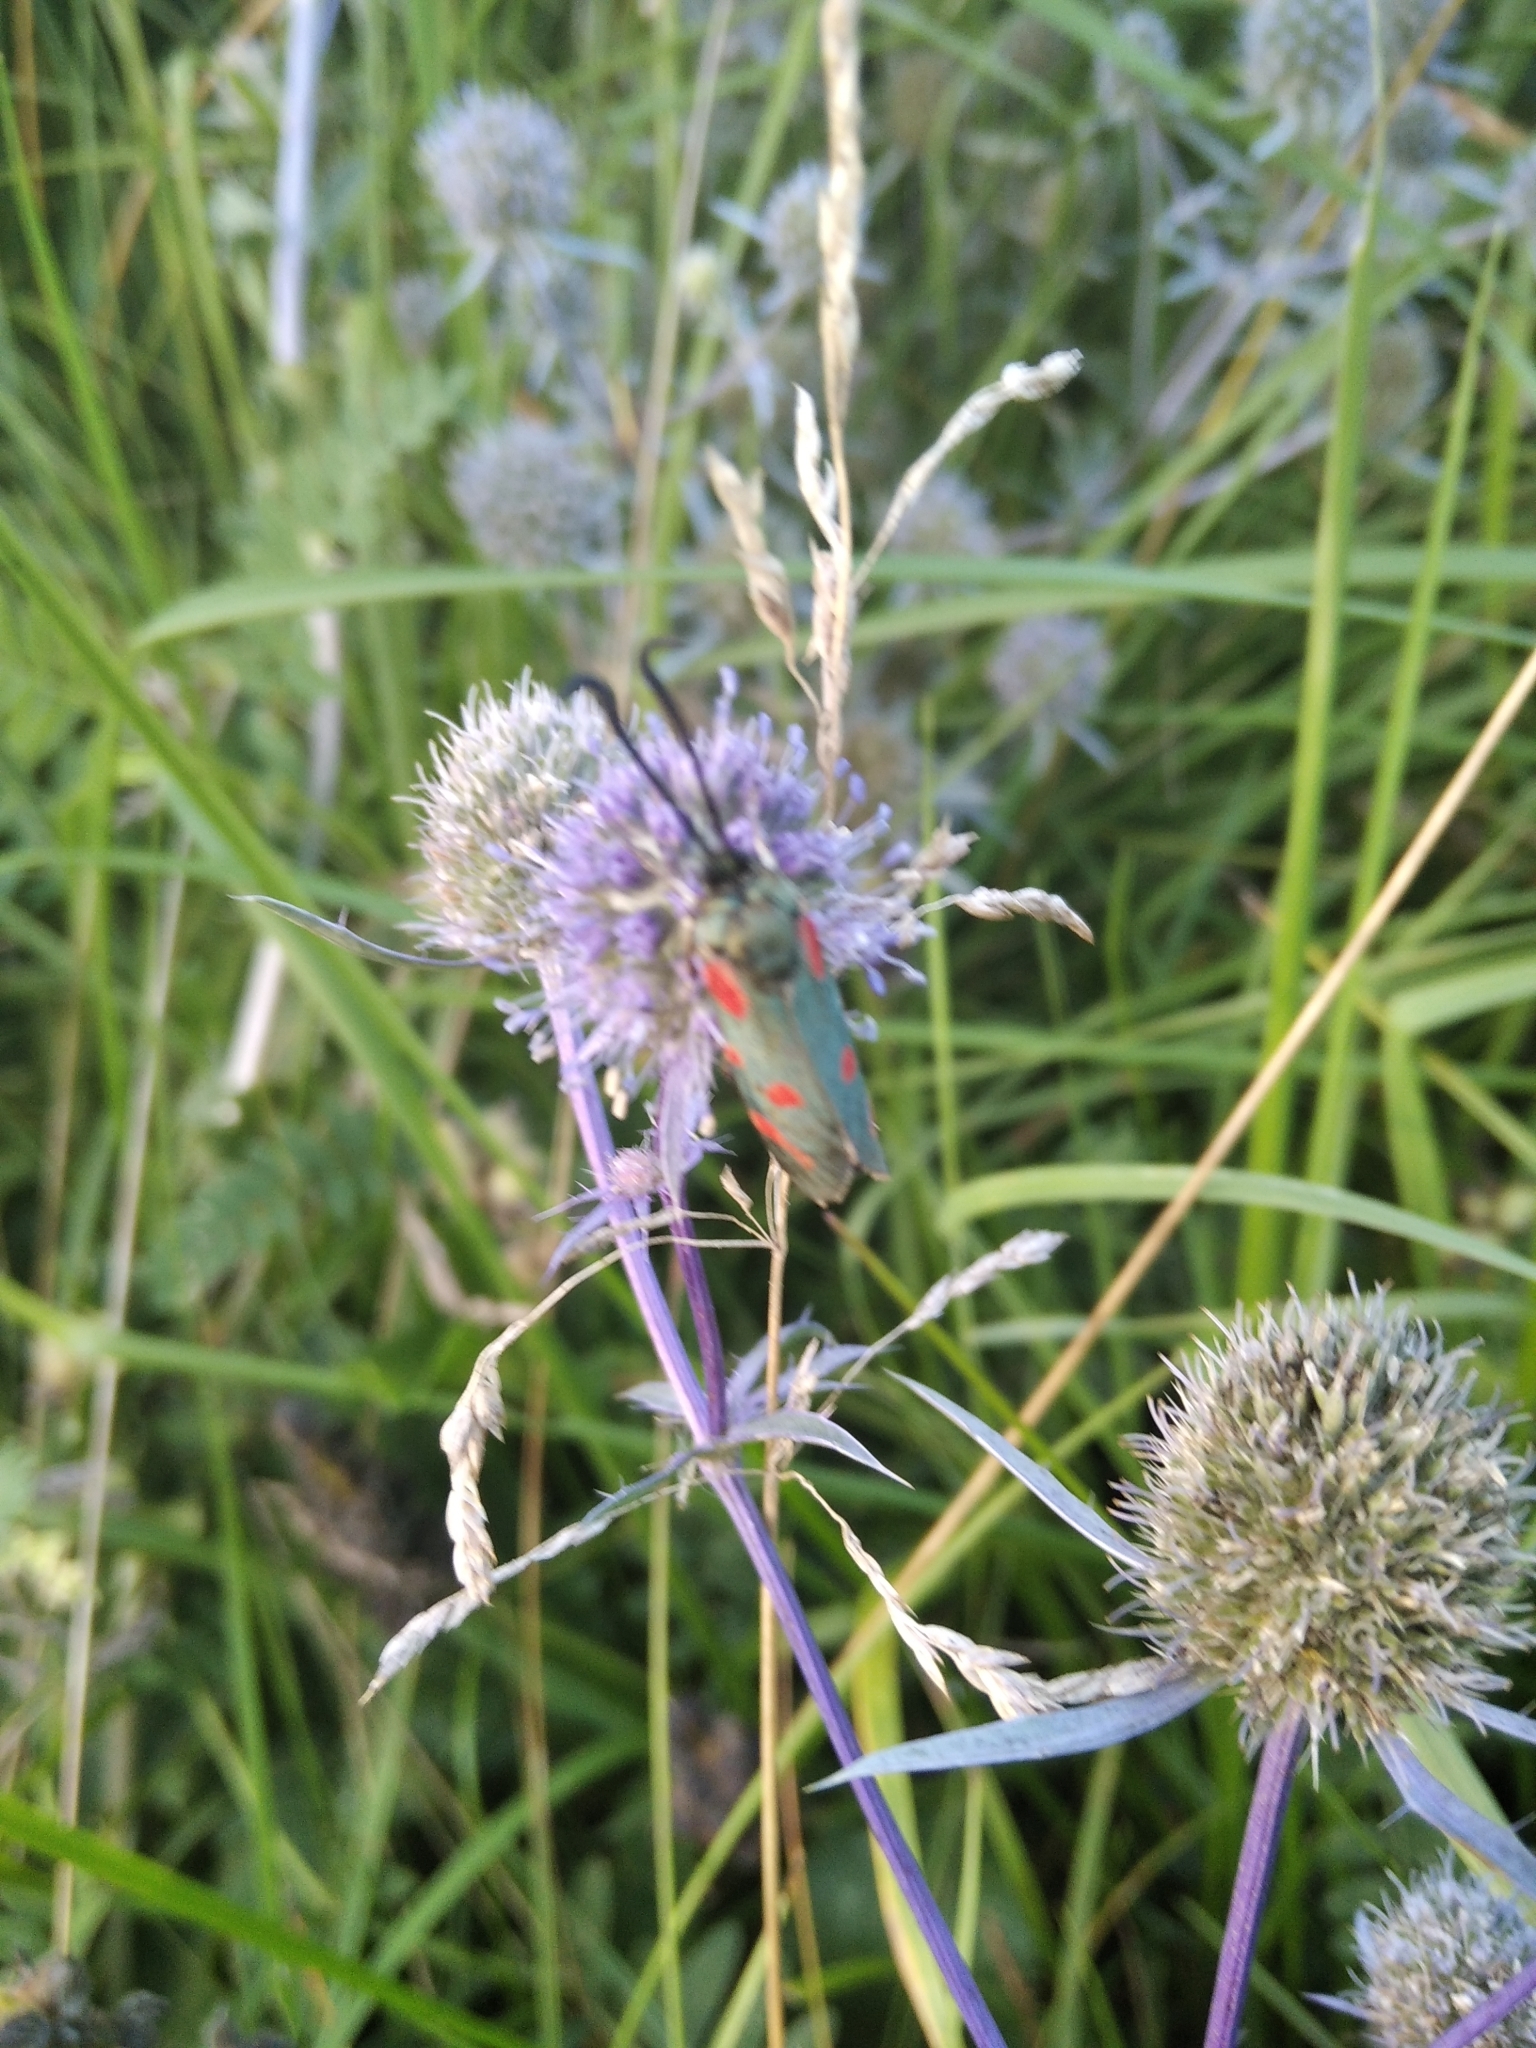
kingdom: Animalia
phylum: Arthropoda
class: Insecta
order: Lepidoptera
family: Zygaenidae
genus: Zygaena
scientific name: Zygaena centaureae
